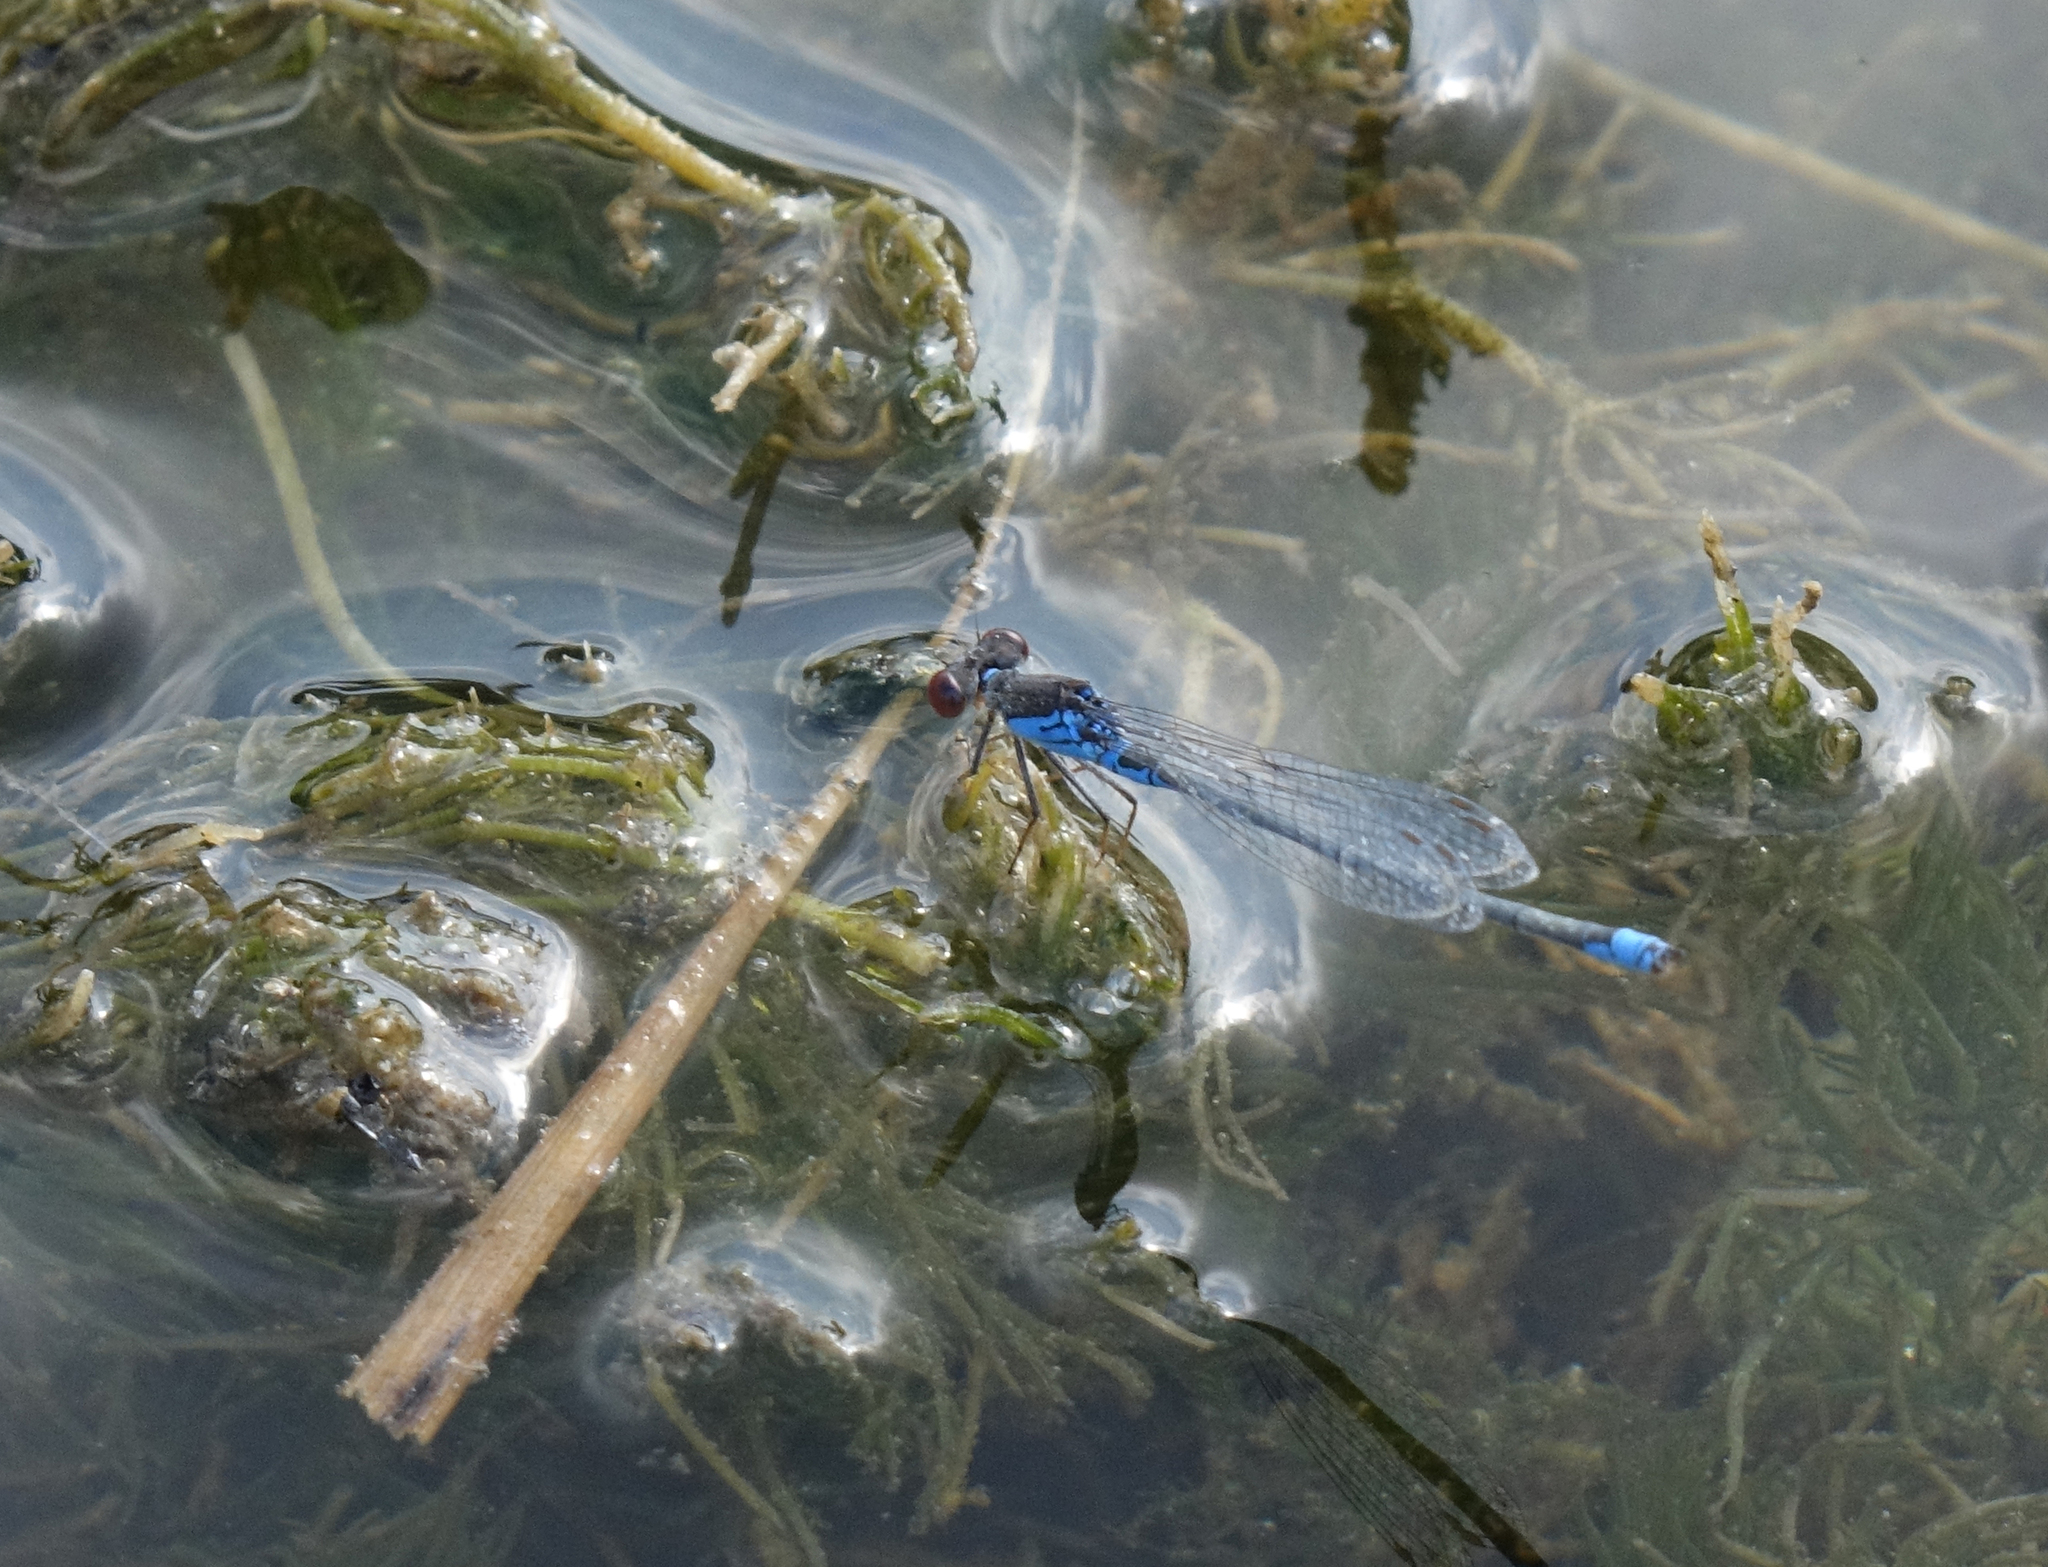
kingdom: Animalia
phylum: Arthropoda
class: Insecta
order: Odonata
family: Coenagrionidae
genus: Erythromma
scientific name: Erythromma viridulum
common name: Small red-eyed damselfly
